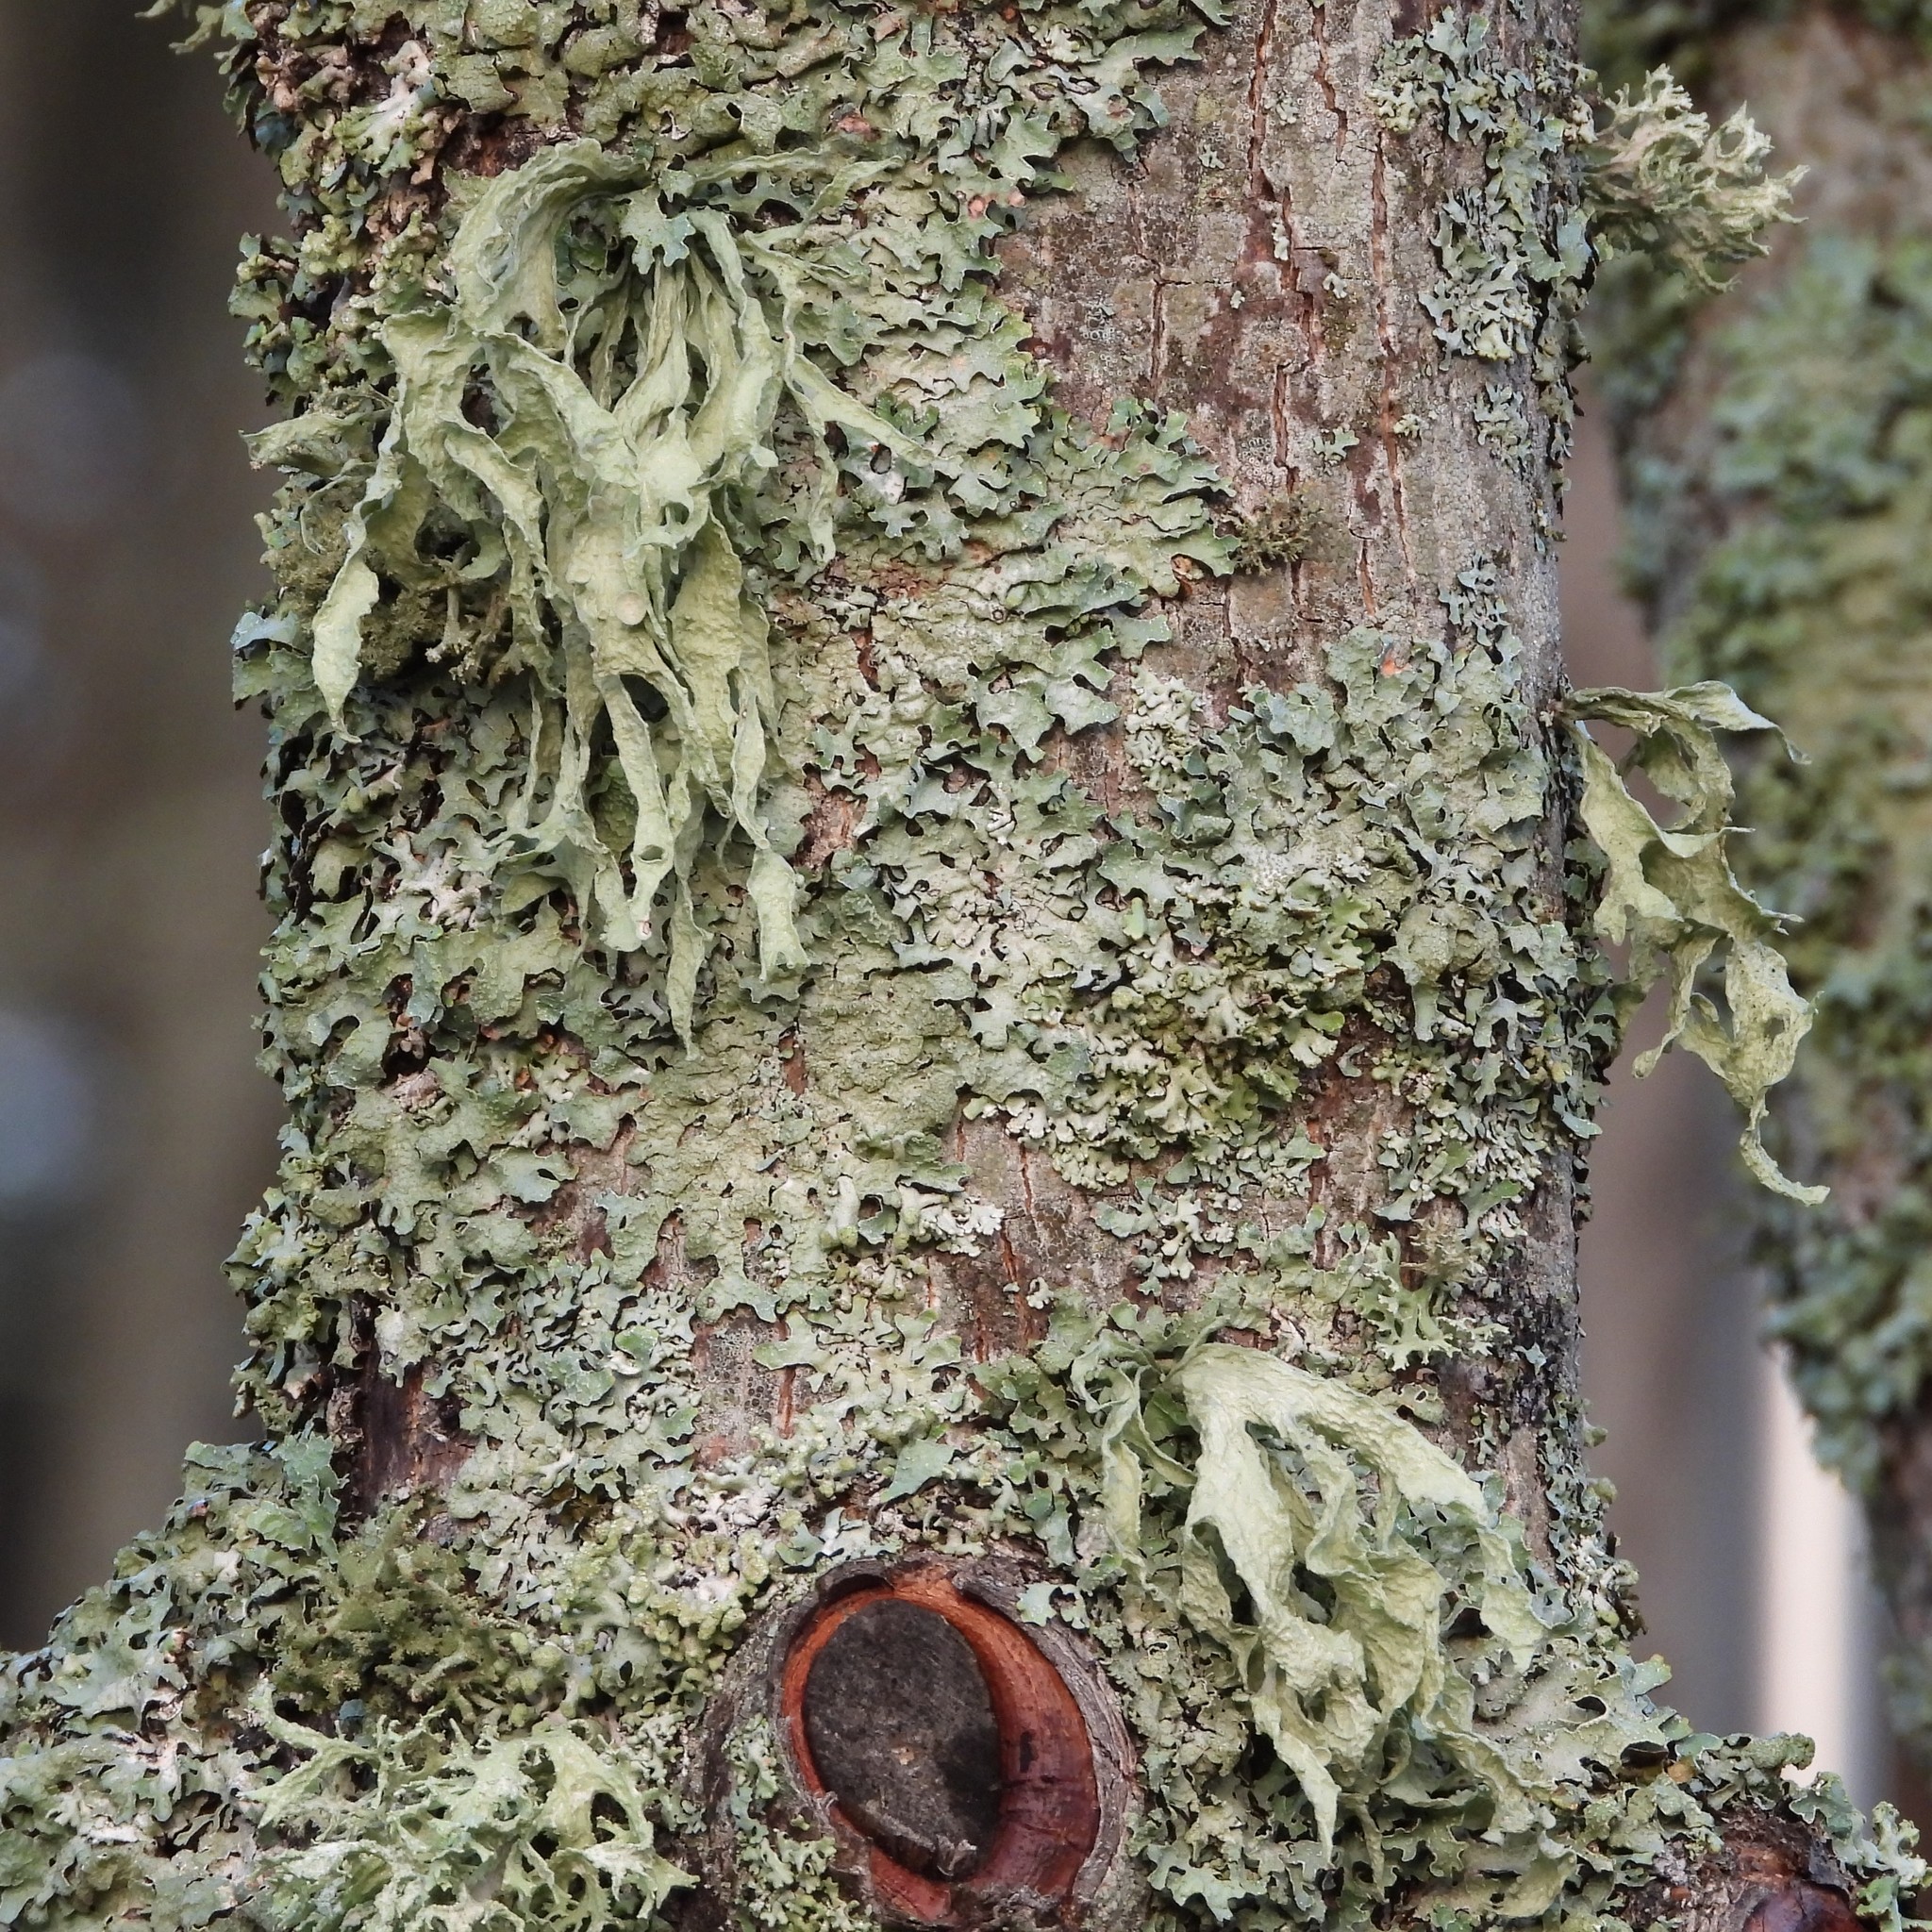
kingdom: Fungi
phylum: Ascomycota
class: Lecanoromycetes
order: Lecanorales
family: Ramalinaceae
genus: Ramalina
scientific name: Ramalina fraxinea
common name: Cartilage lichen
